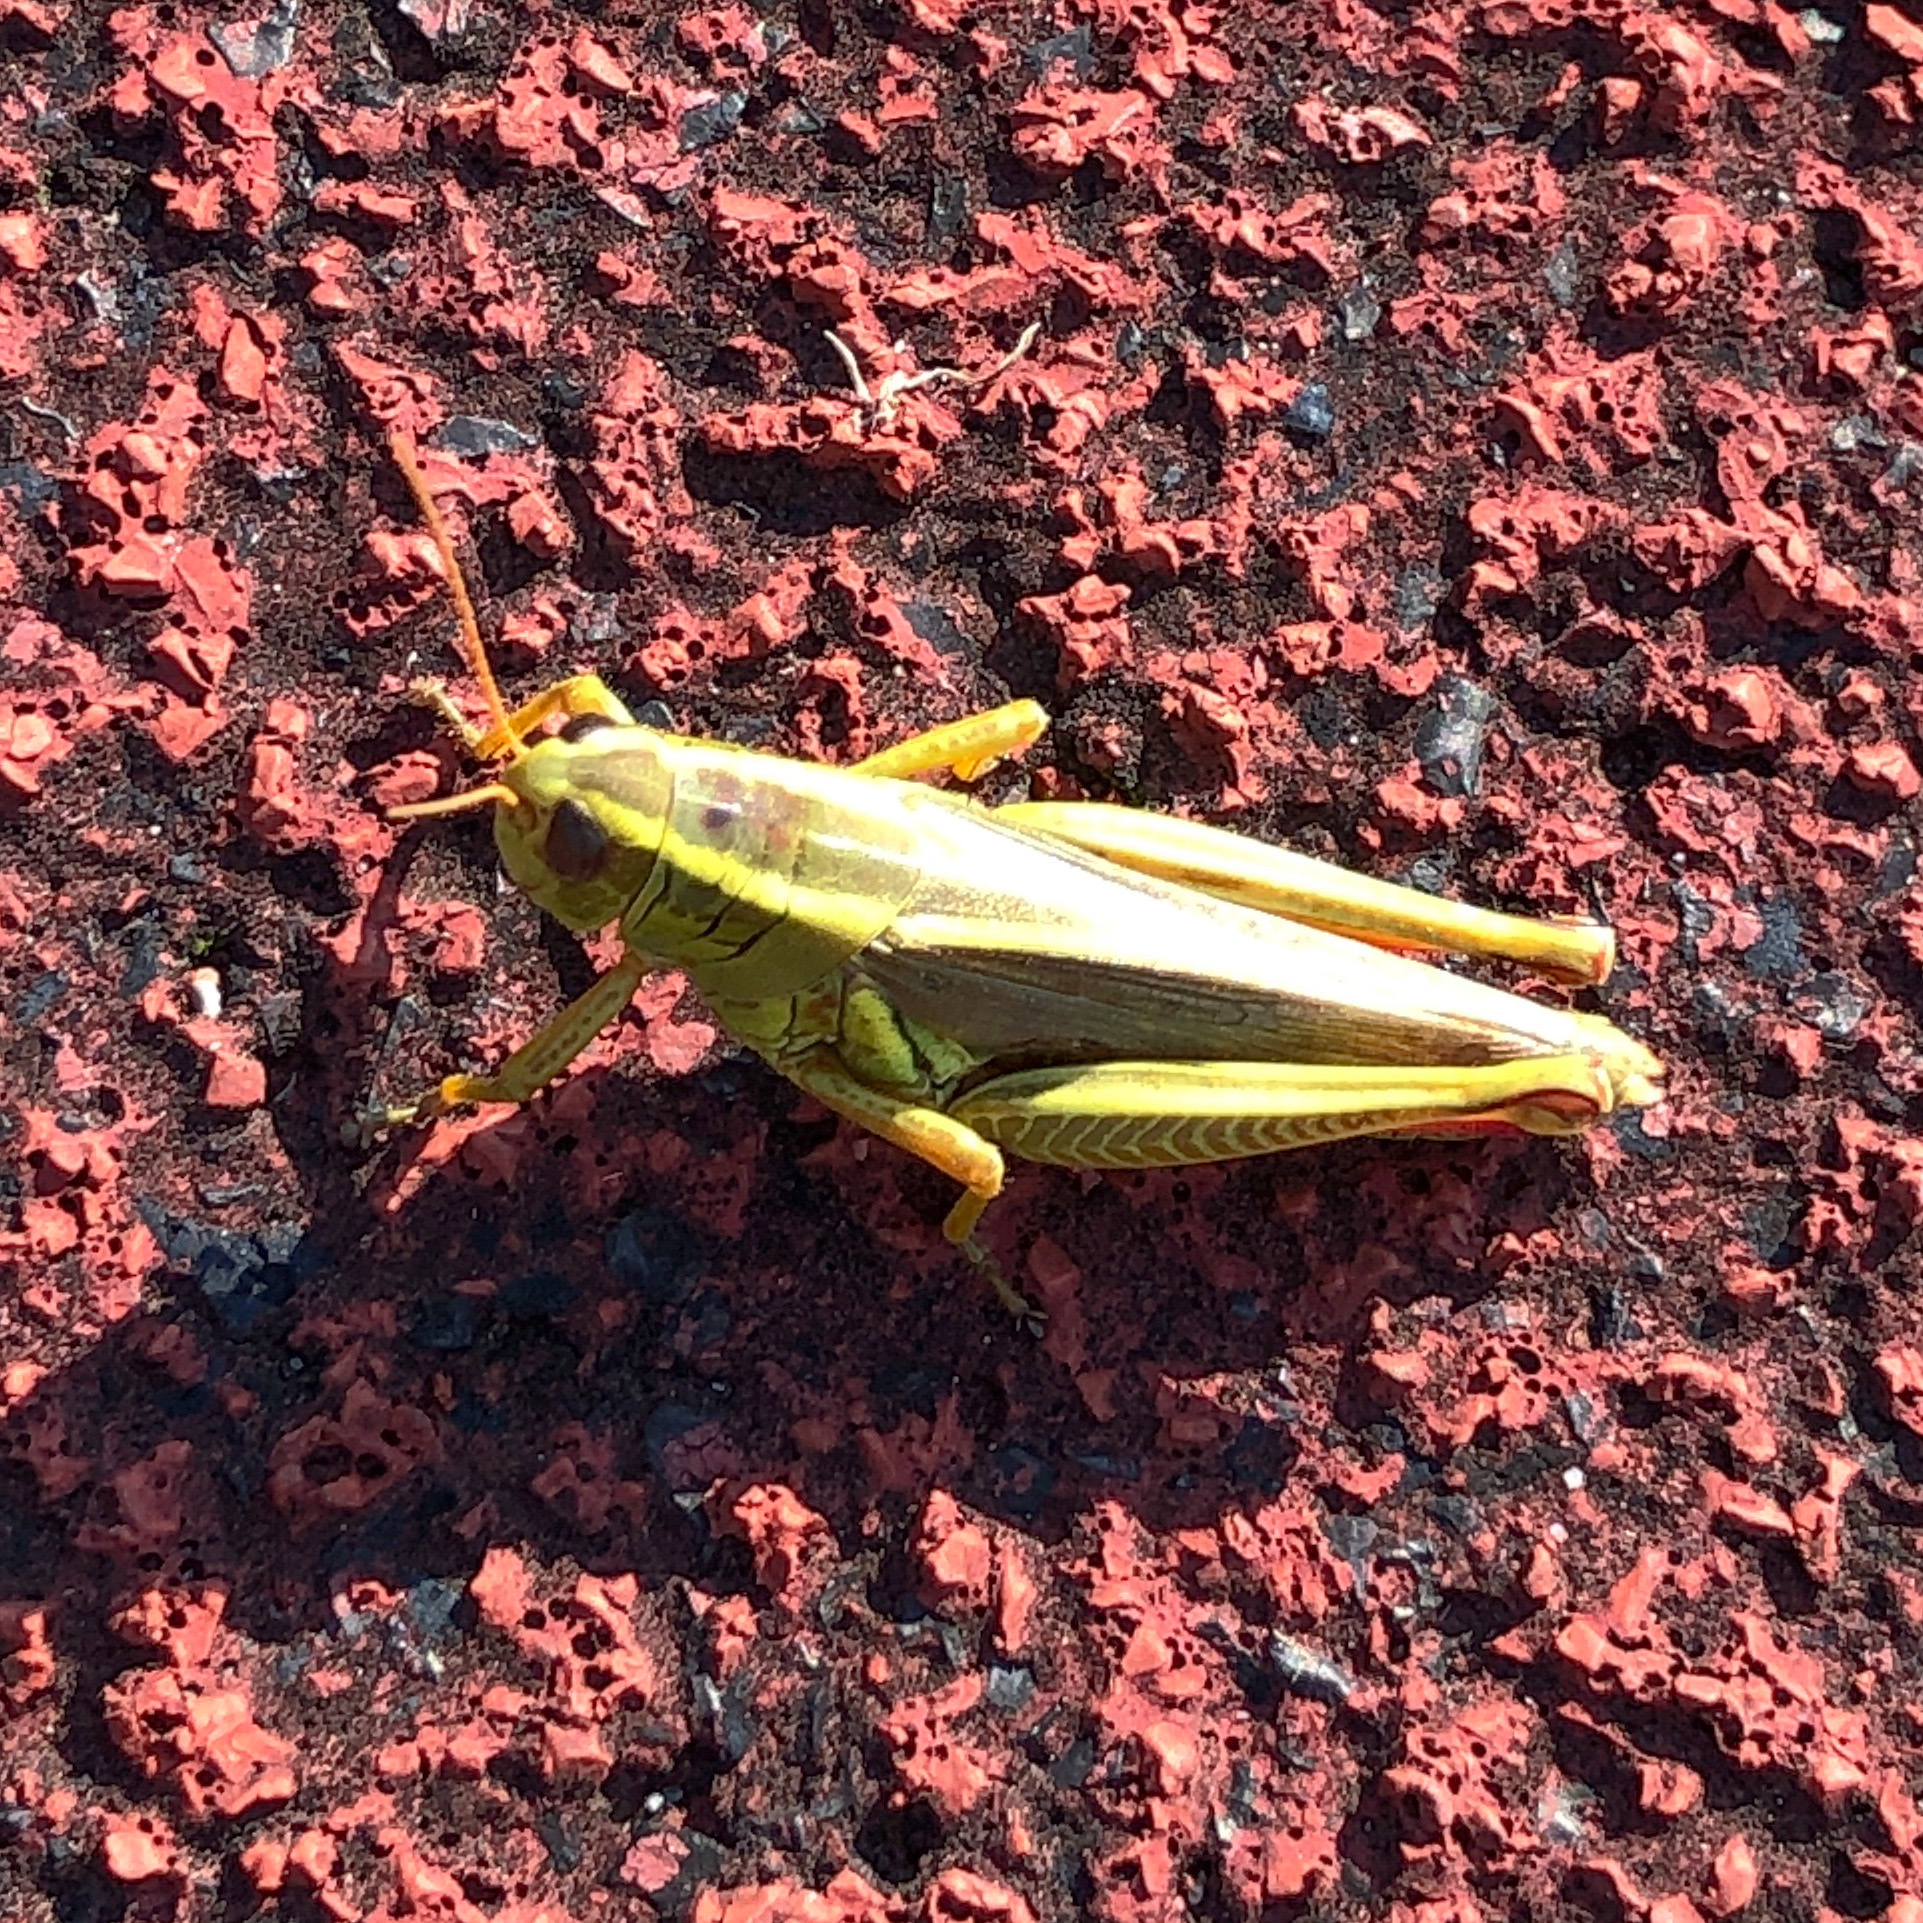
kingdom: Animalia
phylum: Arthropoda
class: Insecta
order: Orthoptera
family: Acrididae
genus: Melanoplus
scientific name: Melanoplus bivittatus
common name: Two-striped grasshopper
